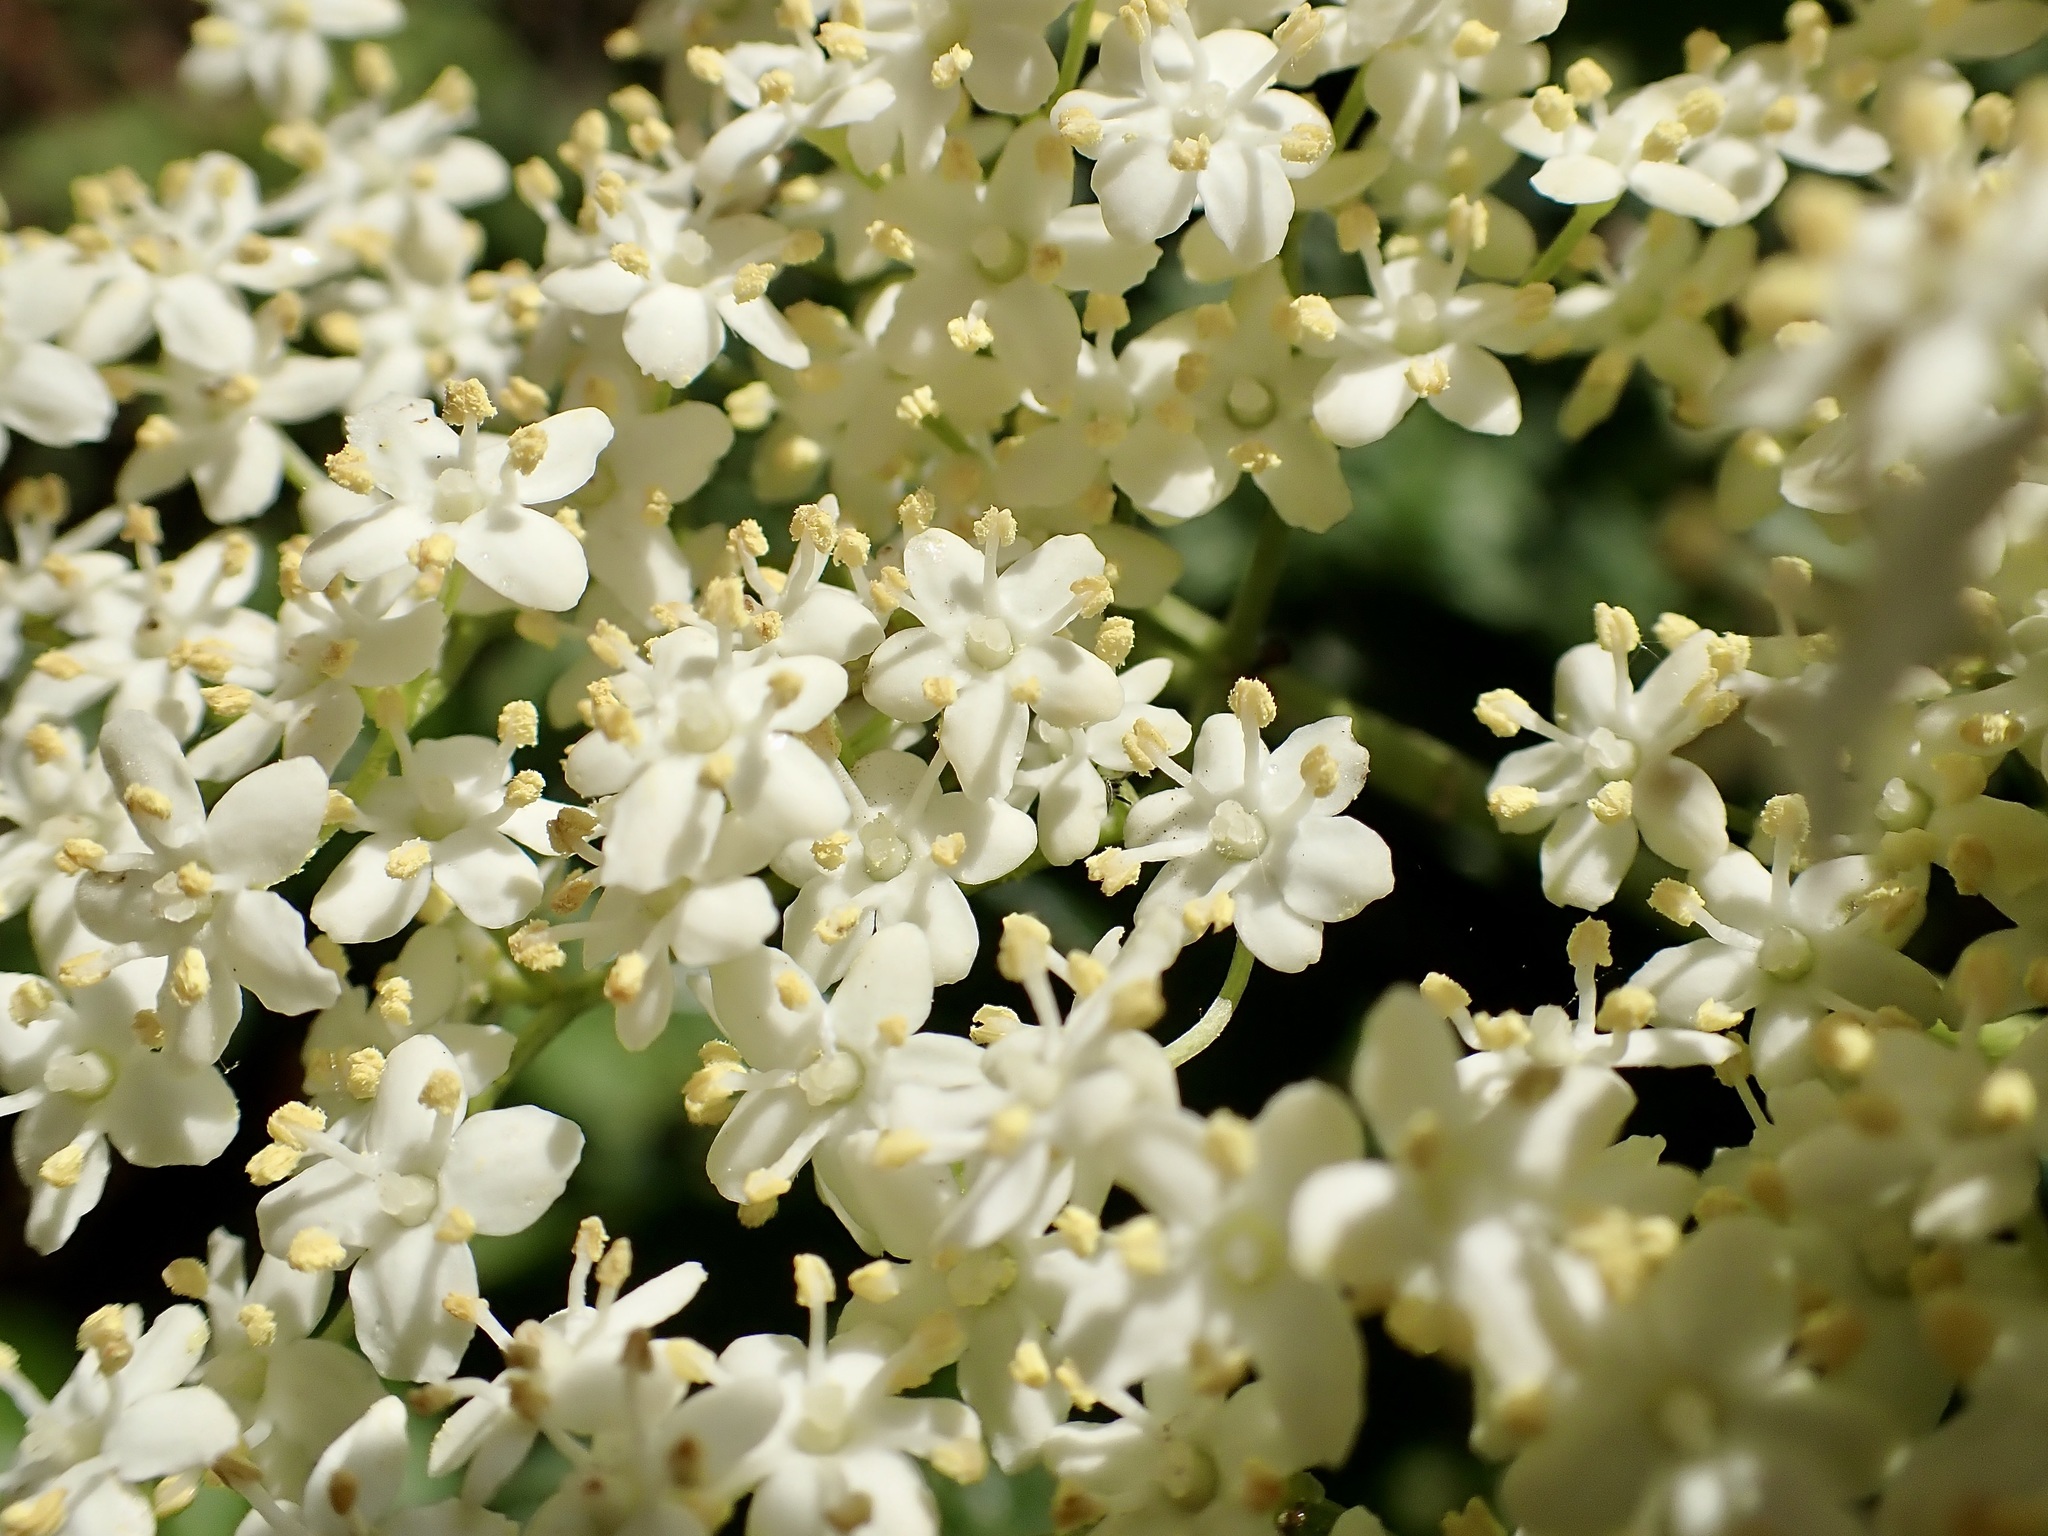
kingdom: Plantae
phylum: Tracheophyta
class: Magnoliopsida
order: Dipsacales
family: Viburnaceae
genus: Sambucus
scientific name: Sambucus nigra
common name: Elder
